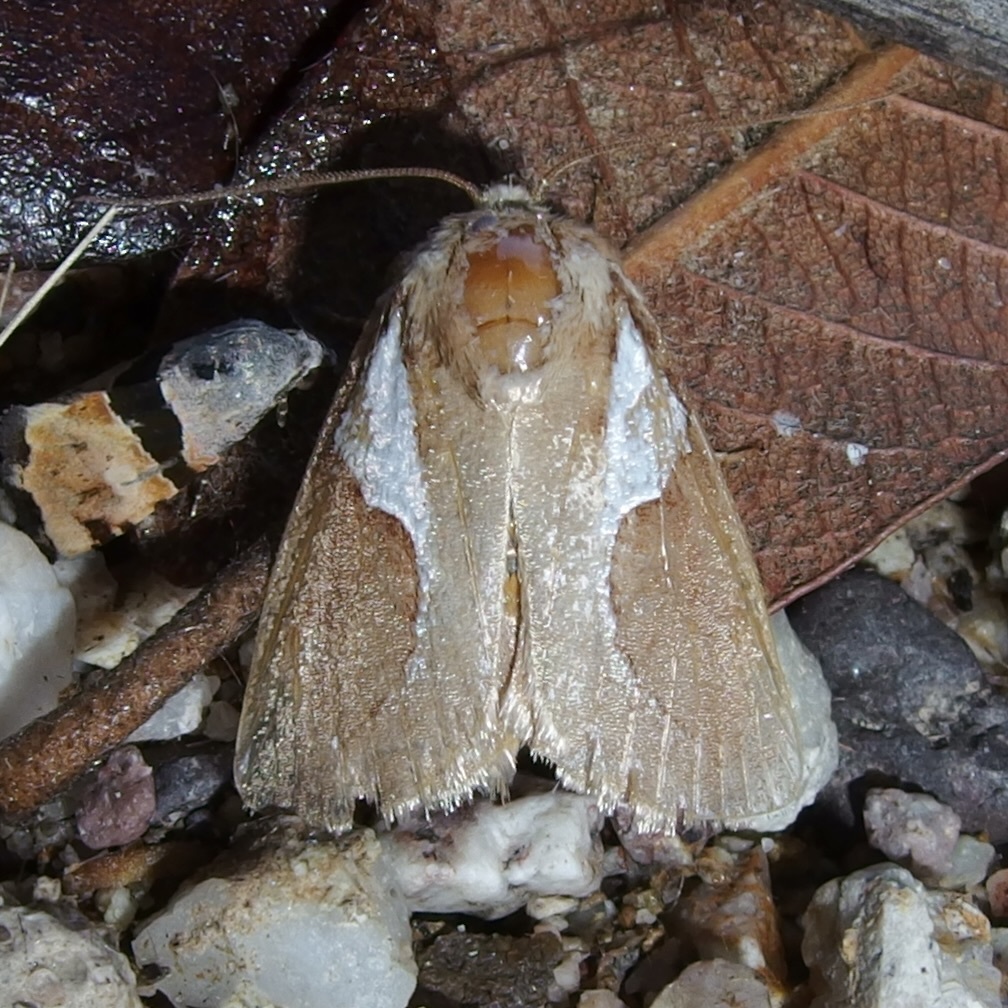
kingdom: Animalia
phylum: Arthropoda
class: Insecta
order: Lepidoptera
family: Limacodidae
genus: Prolimacodes
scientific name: Prolimacodes trigona
